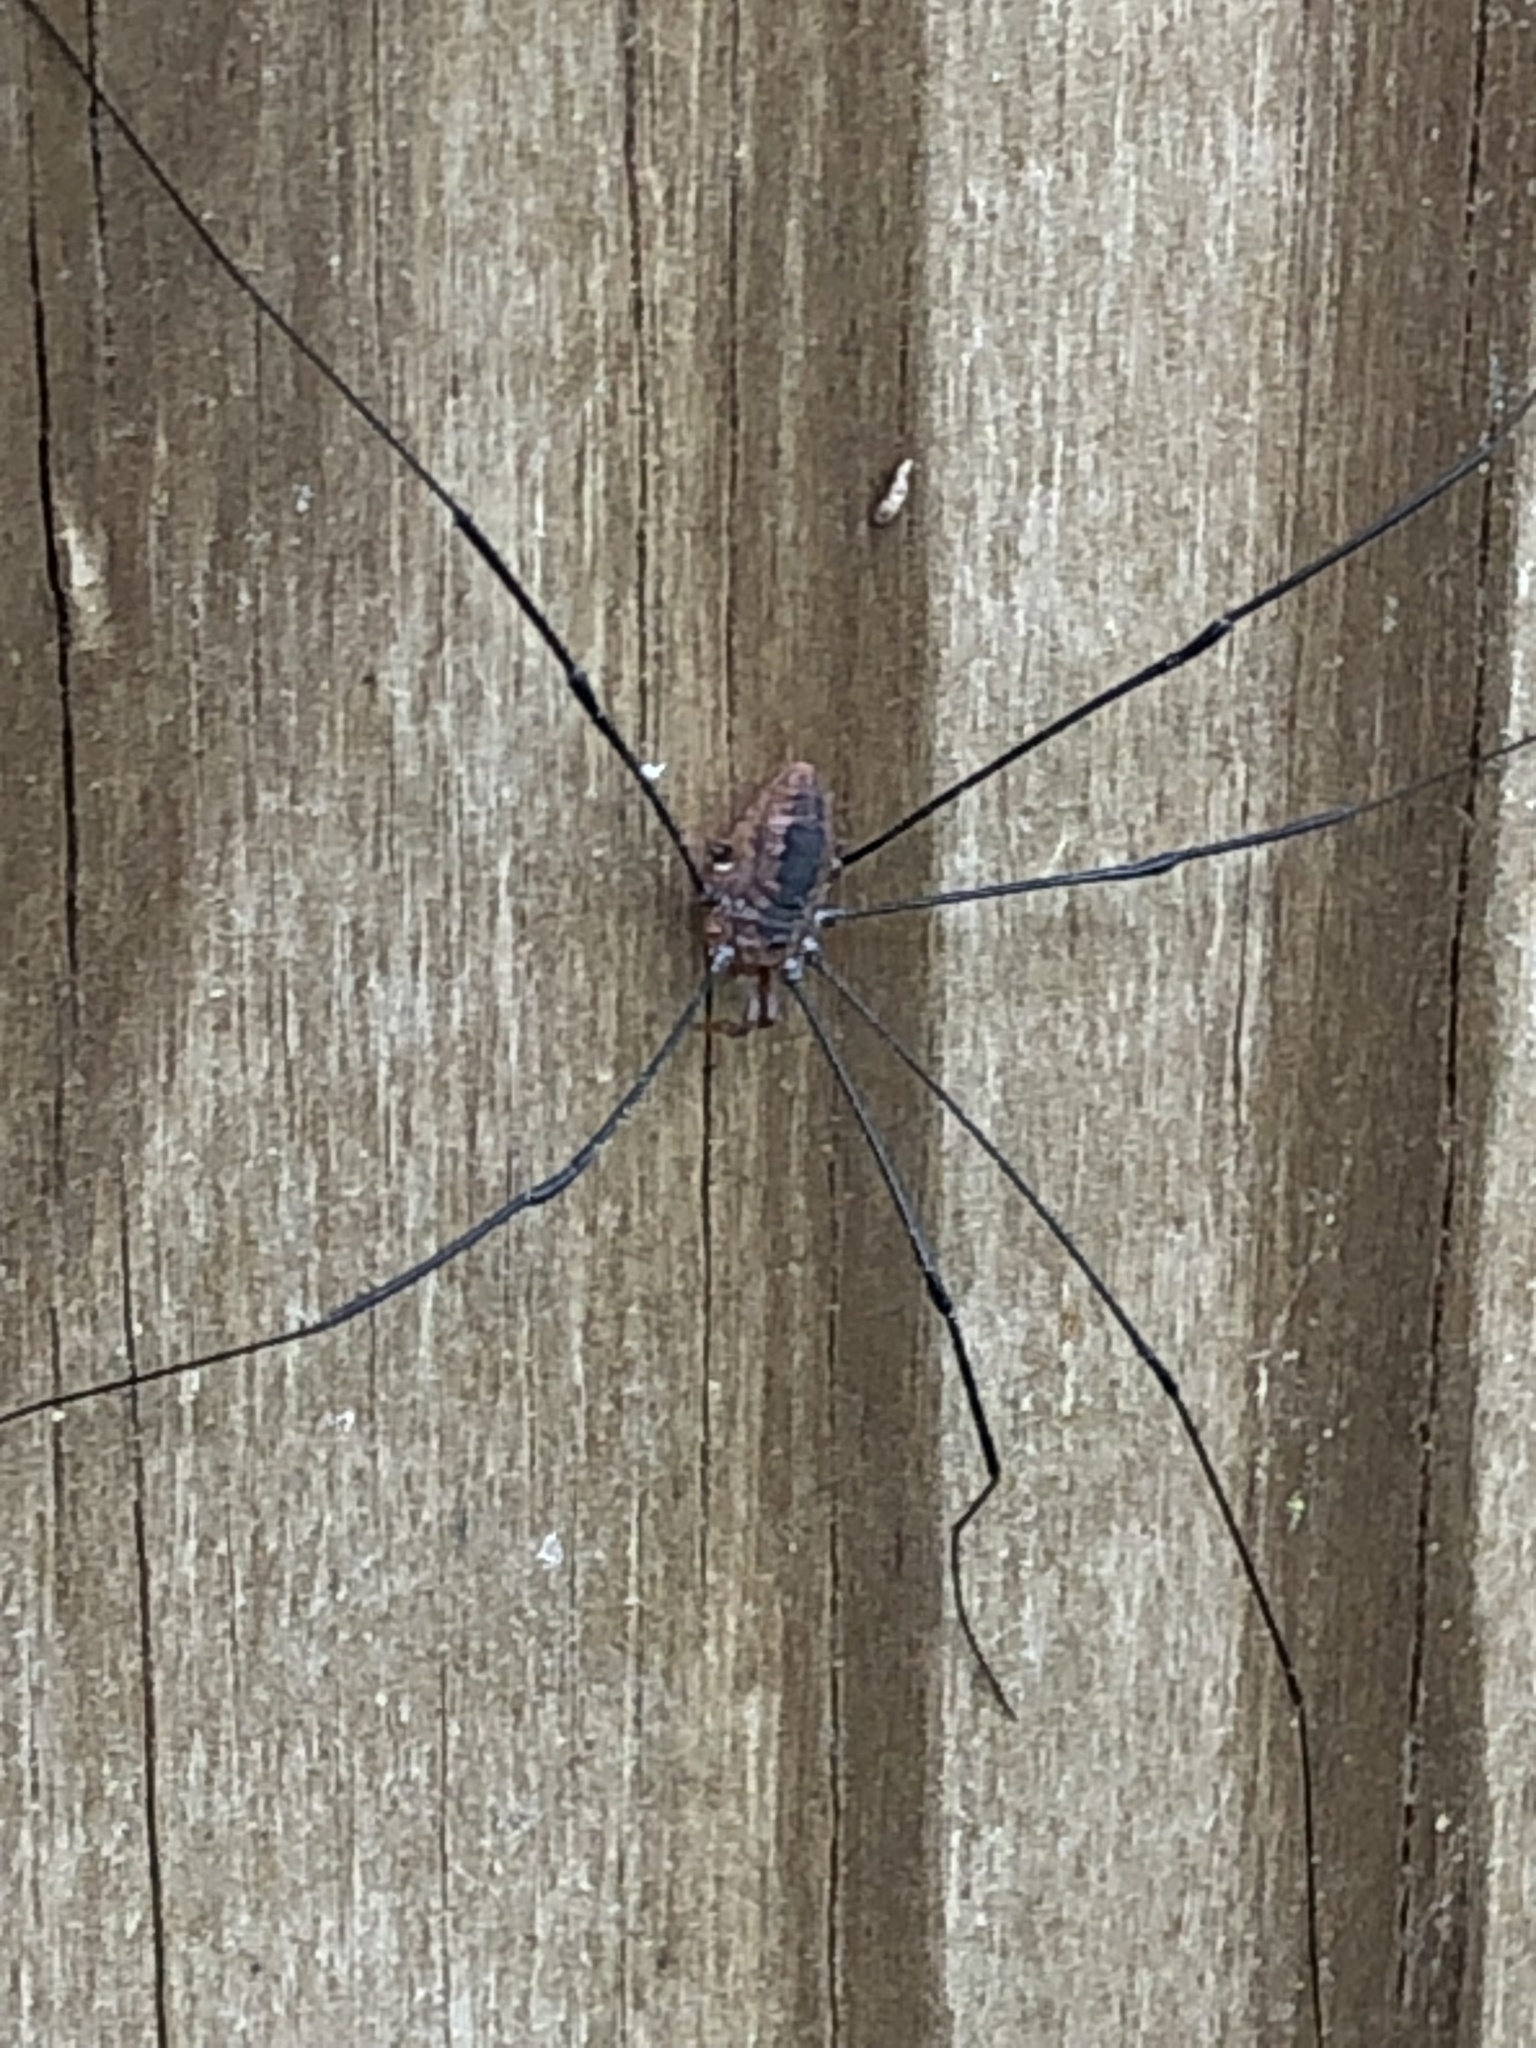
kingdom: Animalia
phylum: Arthropoda
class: Arachnida
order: Opiliones
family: Sclerosomatidae
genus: Leiobunum
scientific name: Leiobunum vittatum
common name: Eastern harvestman
